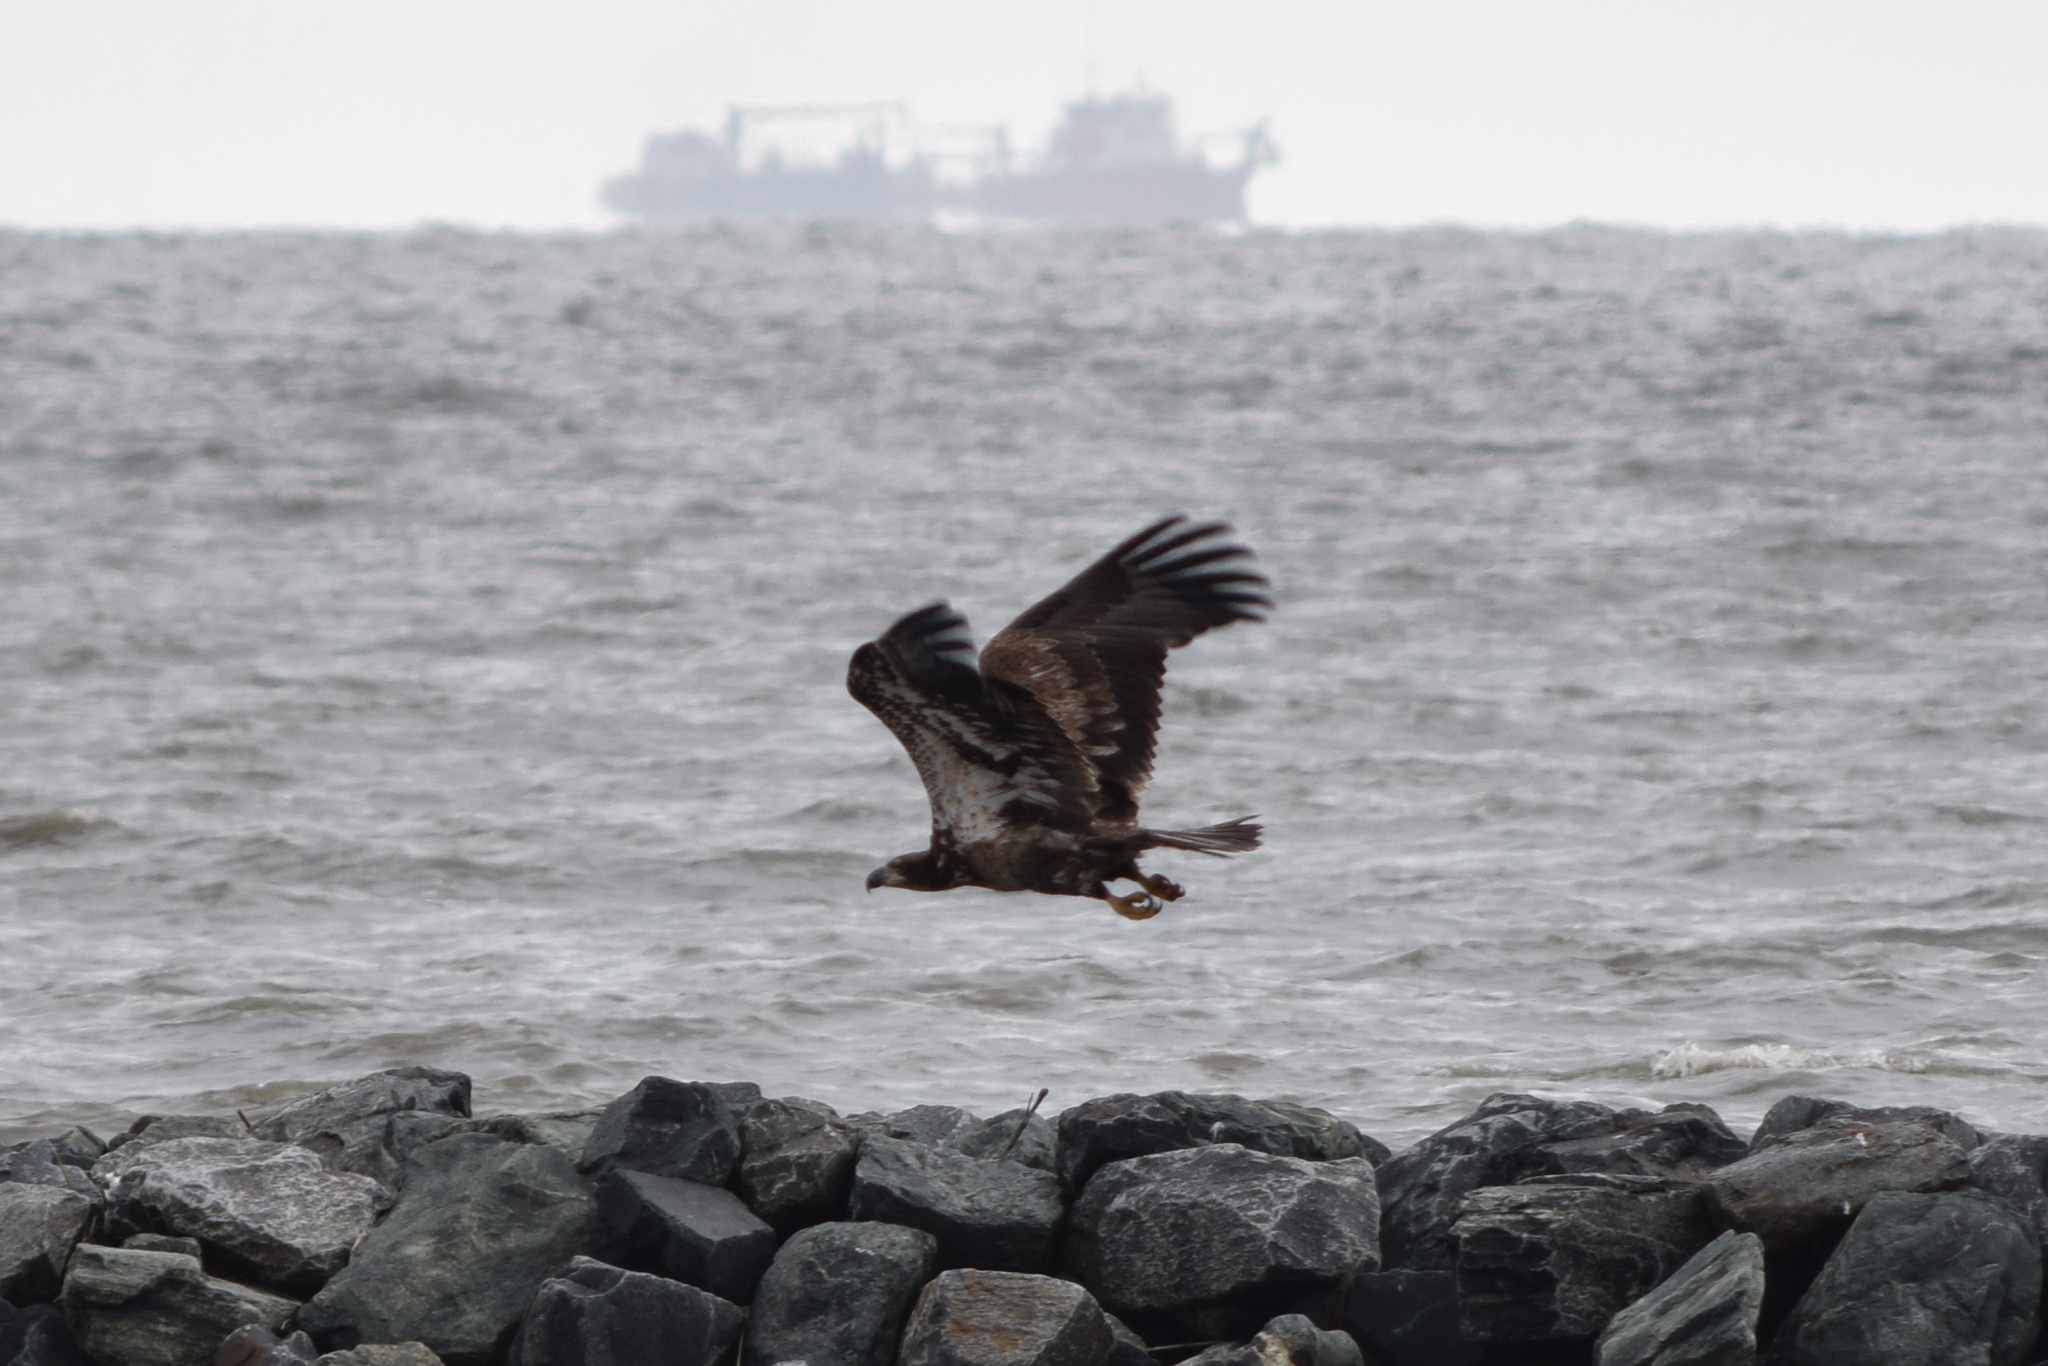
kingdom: Animalia
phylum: Chordata
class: Aves
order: Accipitriformes
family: Accipitridae
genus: Haliaeetus
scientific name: Haliaeetus leucocephalus
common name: Bald eagle
